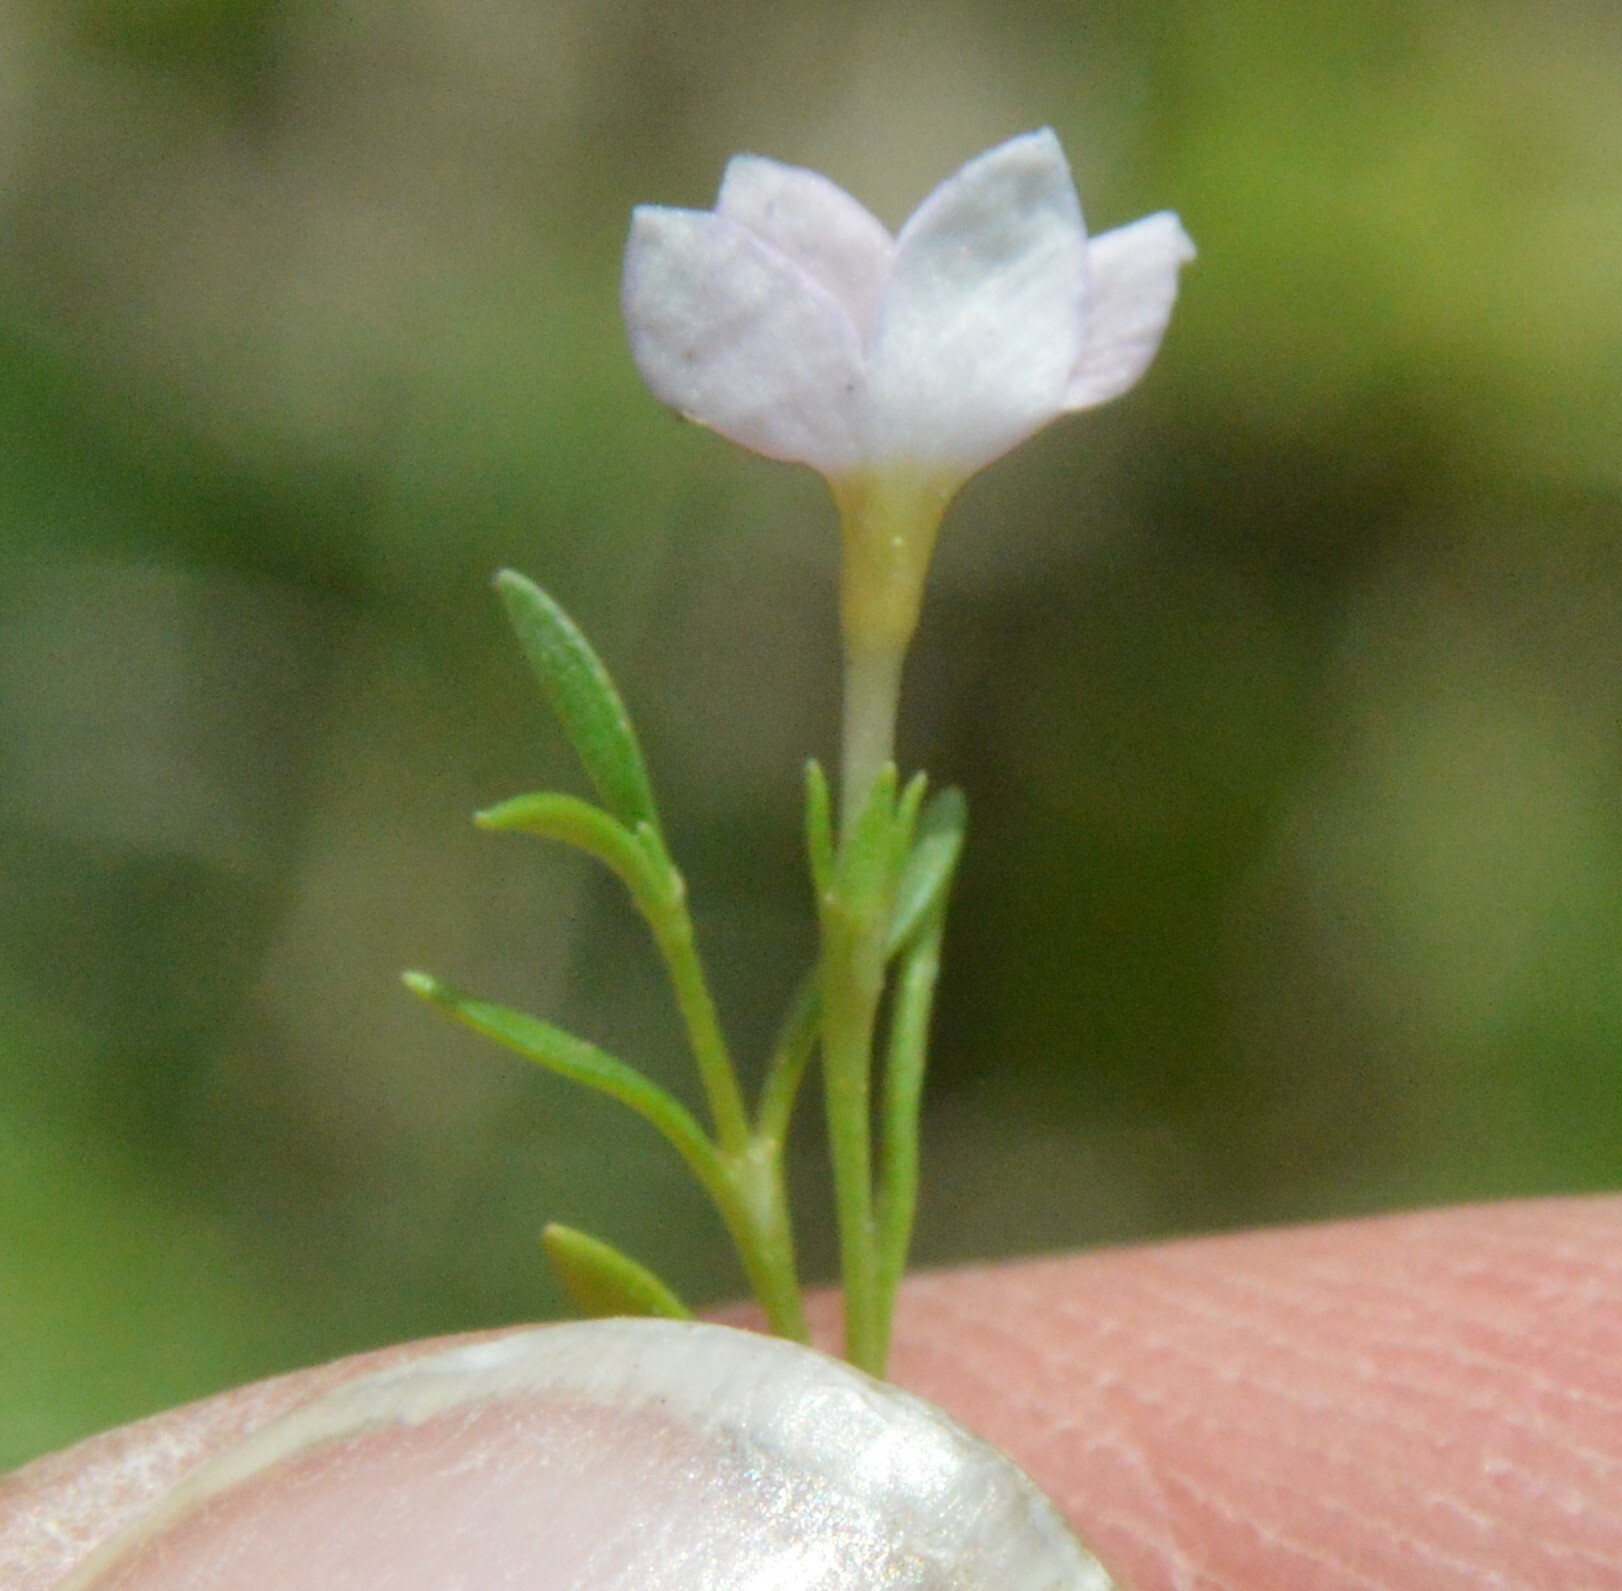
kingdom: Plantae
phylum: Tracheophyta
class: Magnoliopsida
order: Gentianales
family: Rubiaceae
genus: Houstonia
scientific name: Houstonia rosea
